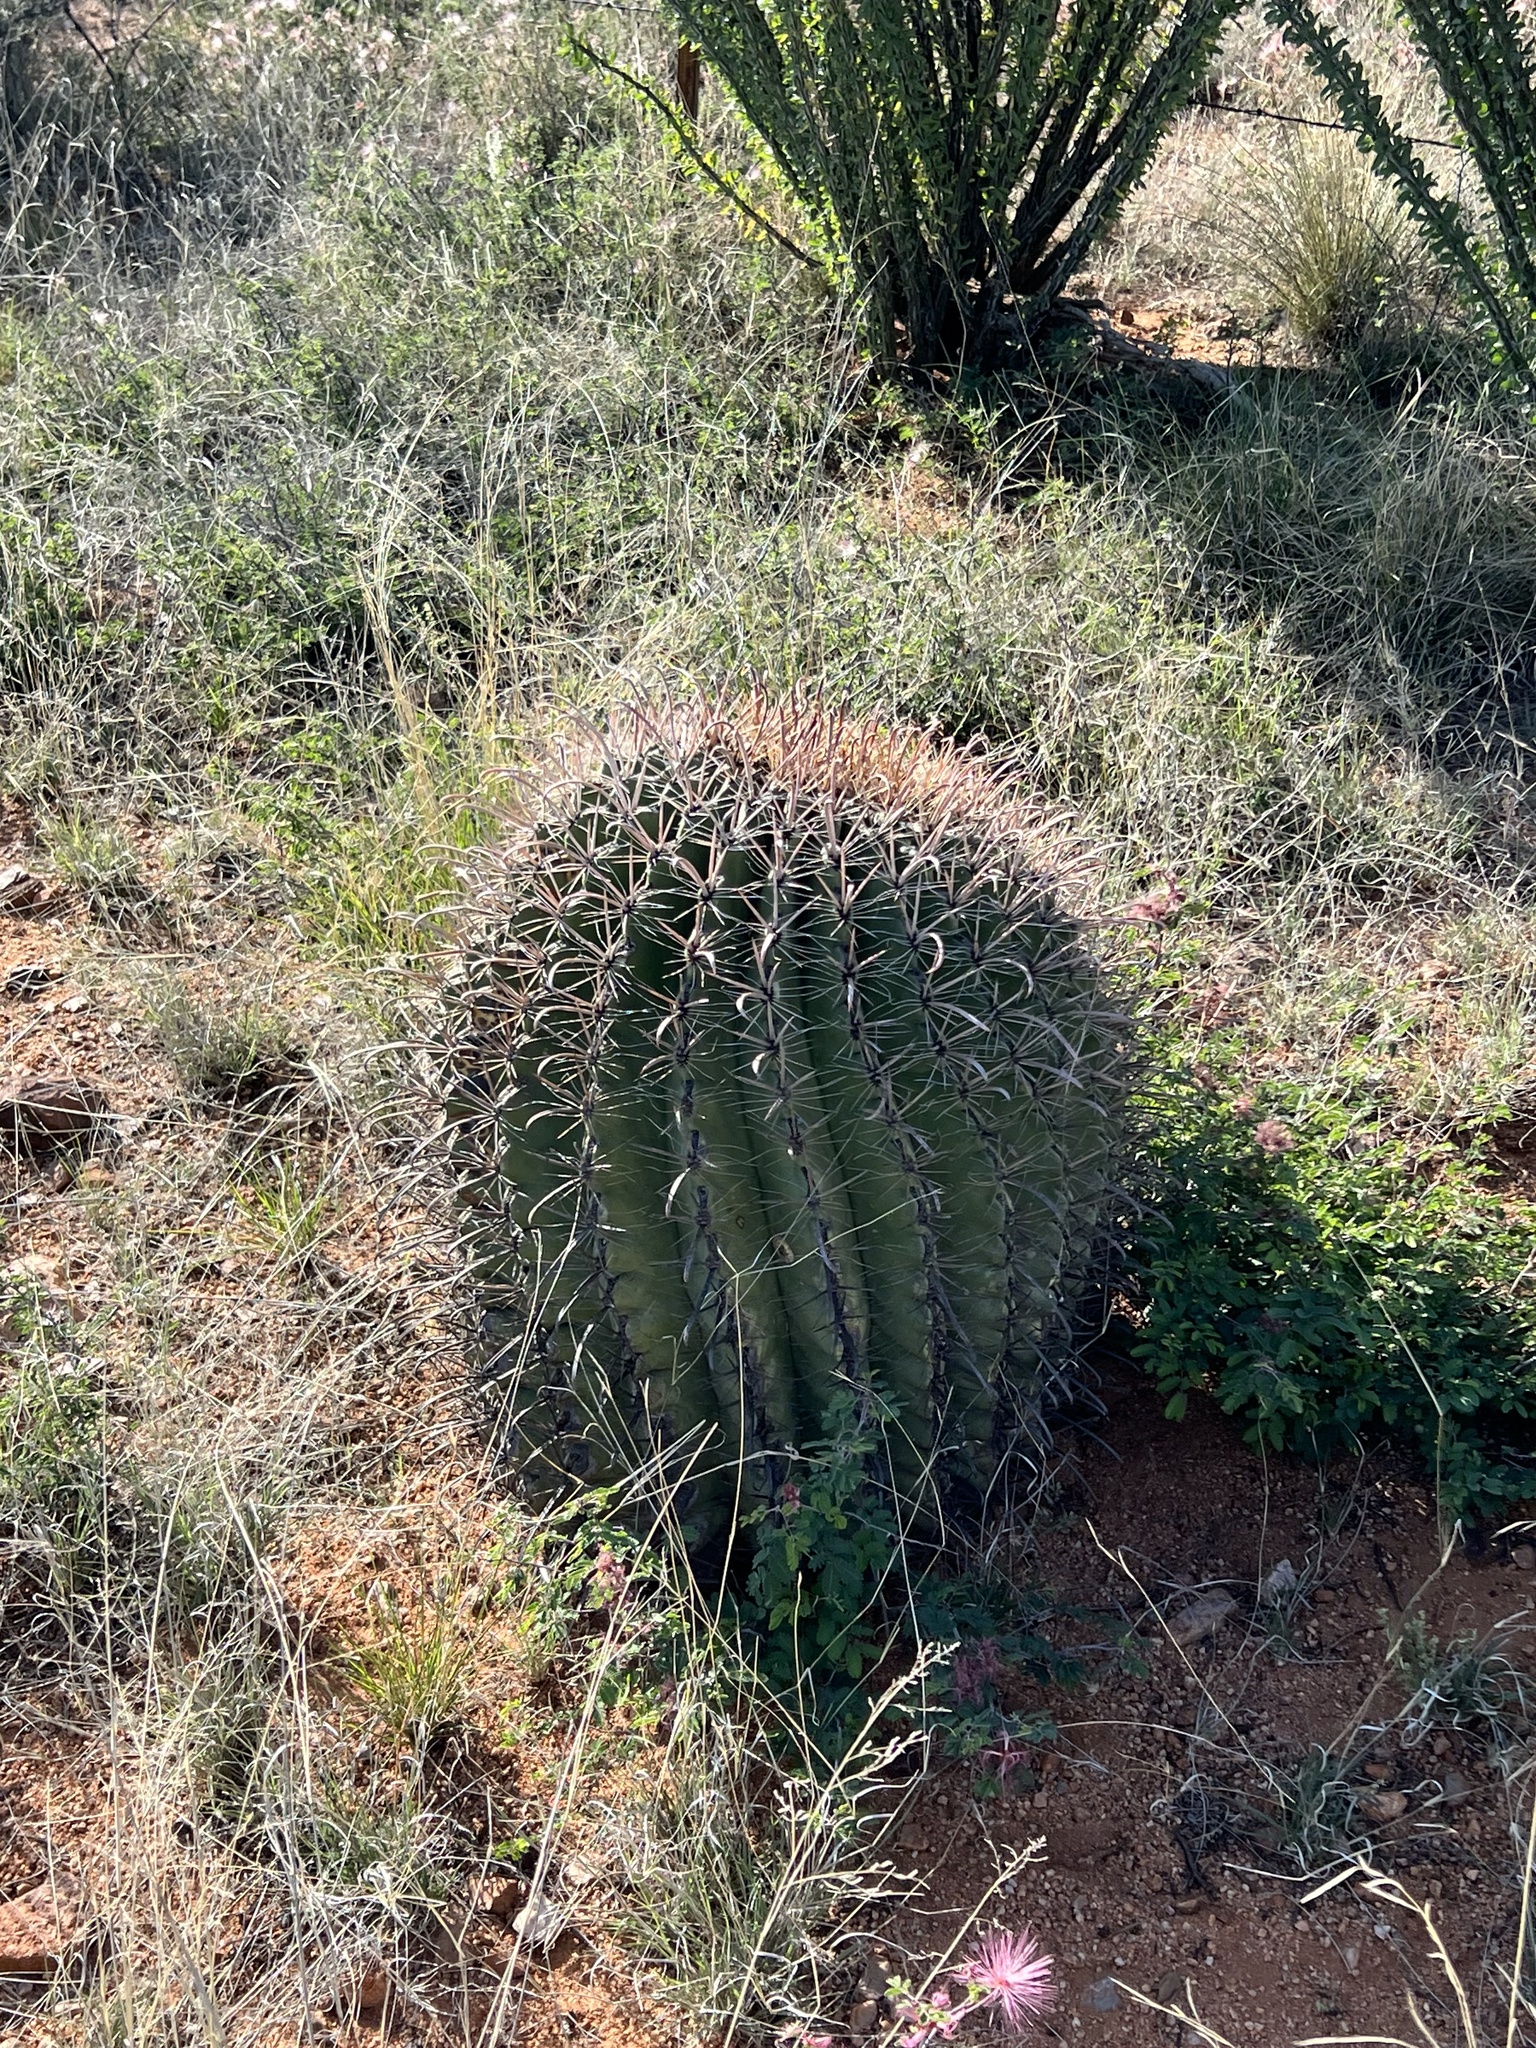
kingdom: Plantae
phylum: Tracheophyta
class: Magnoliopsida
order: Caryophyllales
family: Cactaceae
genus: Ferocactus
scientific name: Ferocactus wislizeni
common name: Candy barrel cactus
